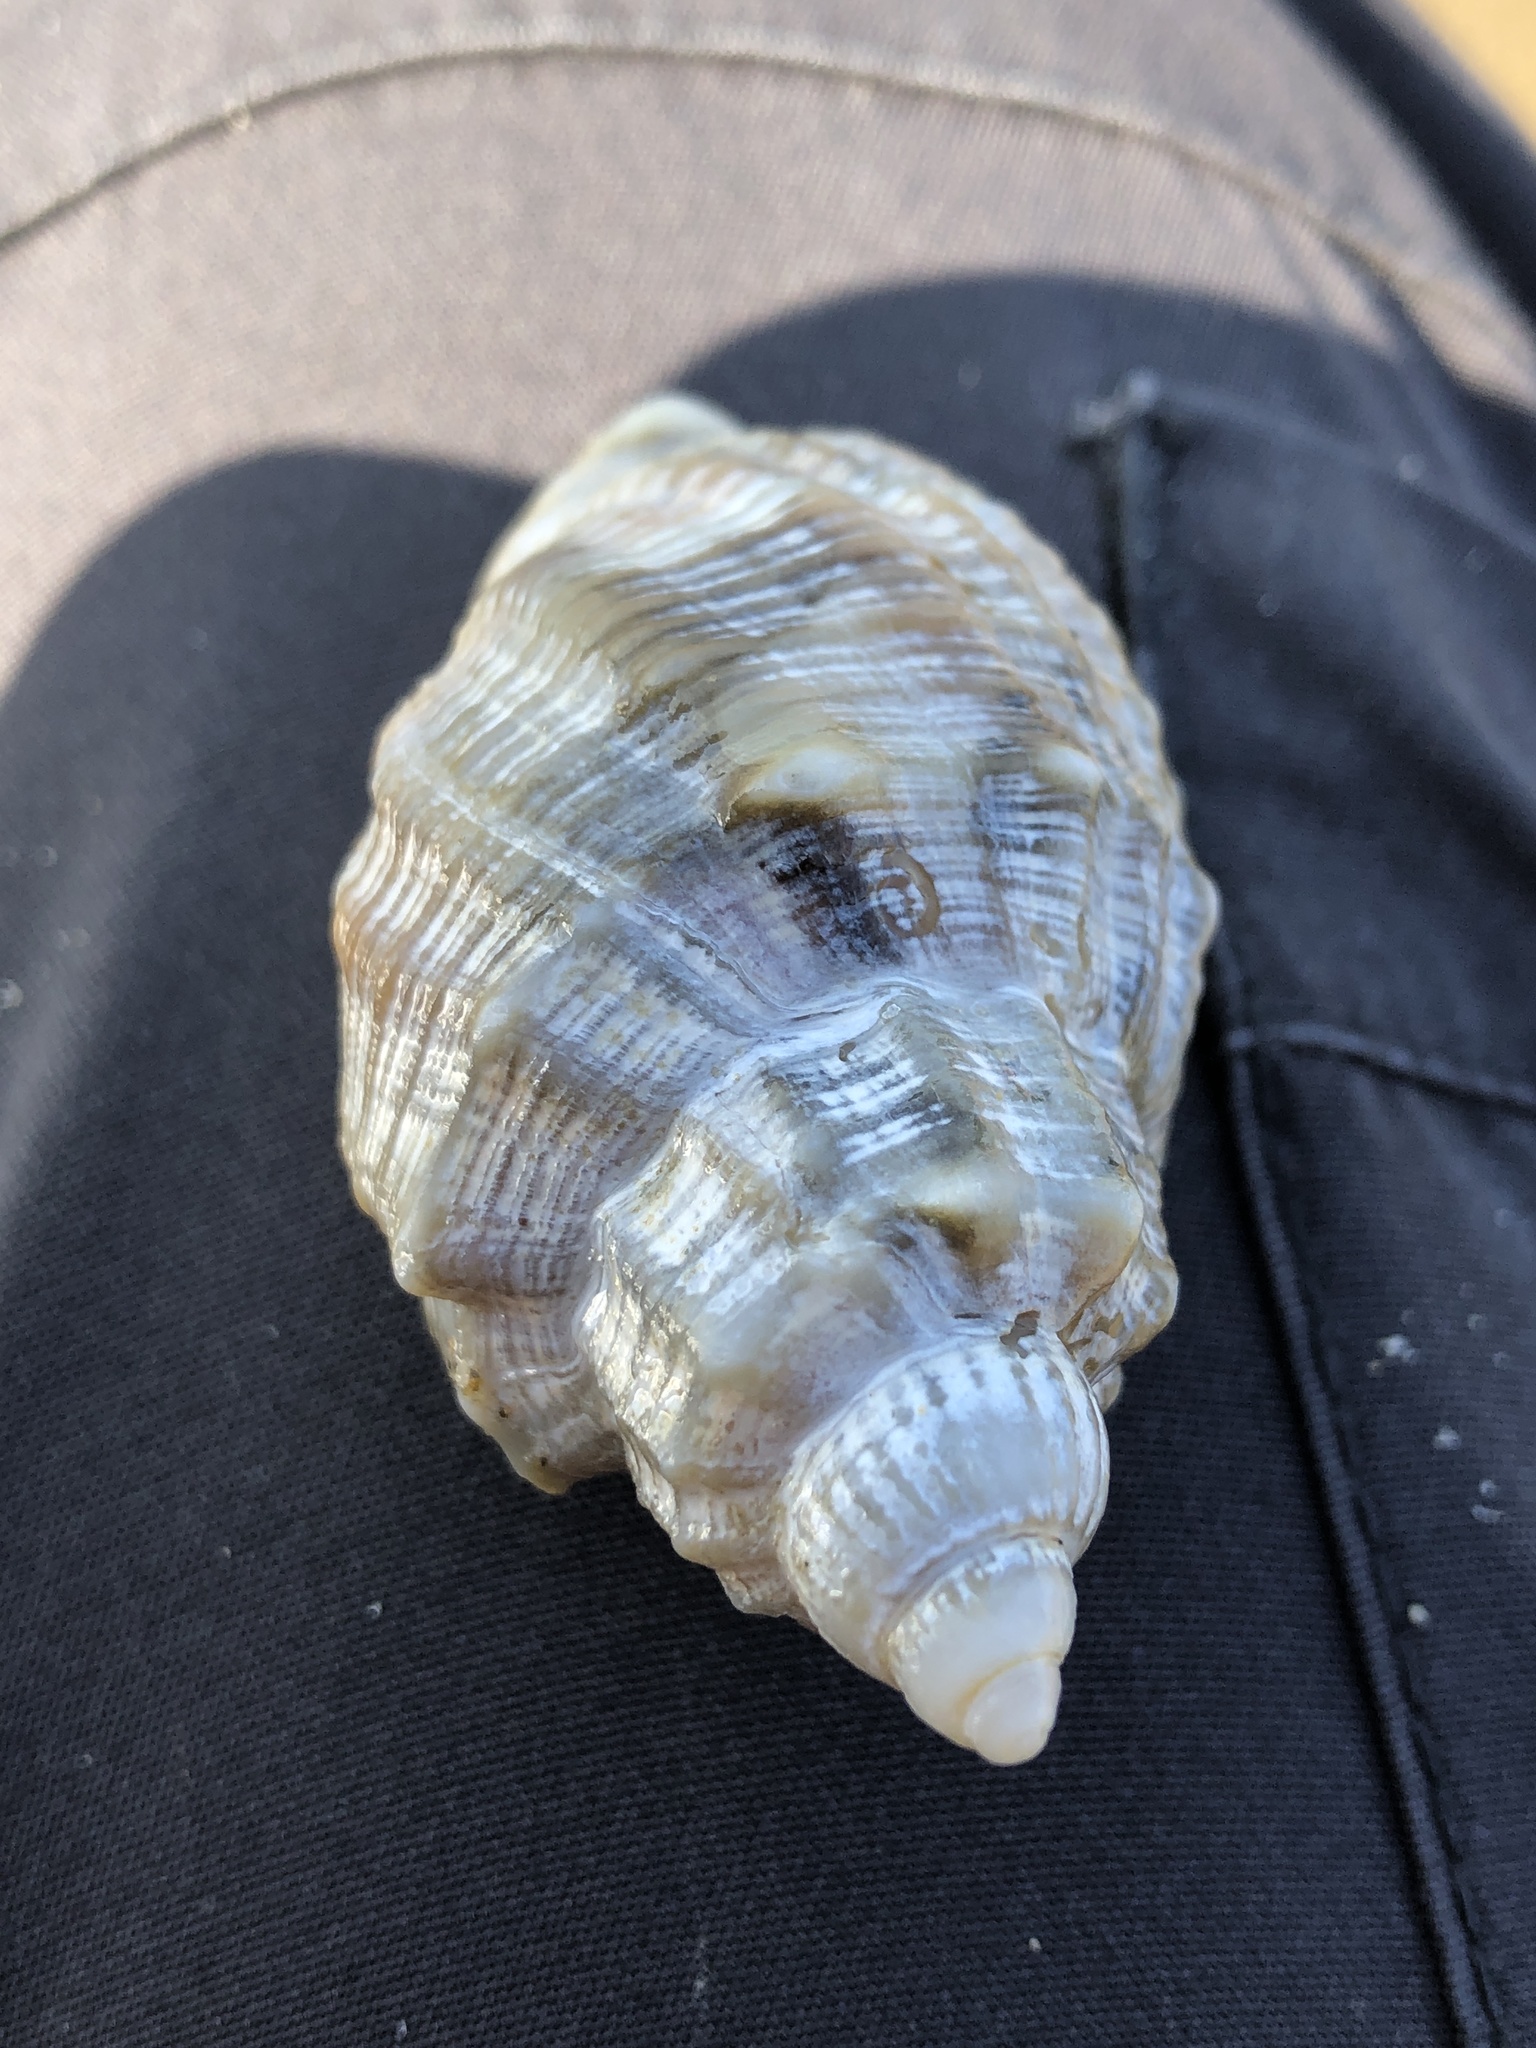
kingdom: Animalia
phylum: Mollusca
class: Gastropoda
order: Neogastropoda
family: Cancellariidae
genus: Sydaphera
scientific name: Sydaphera spengleriana
